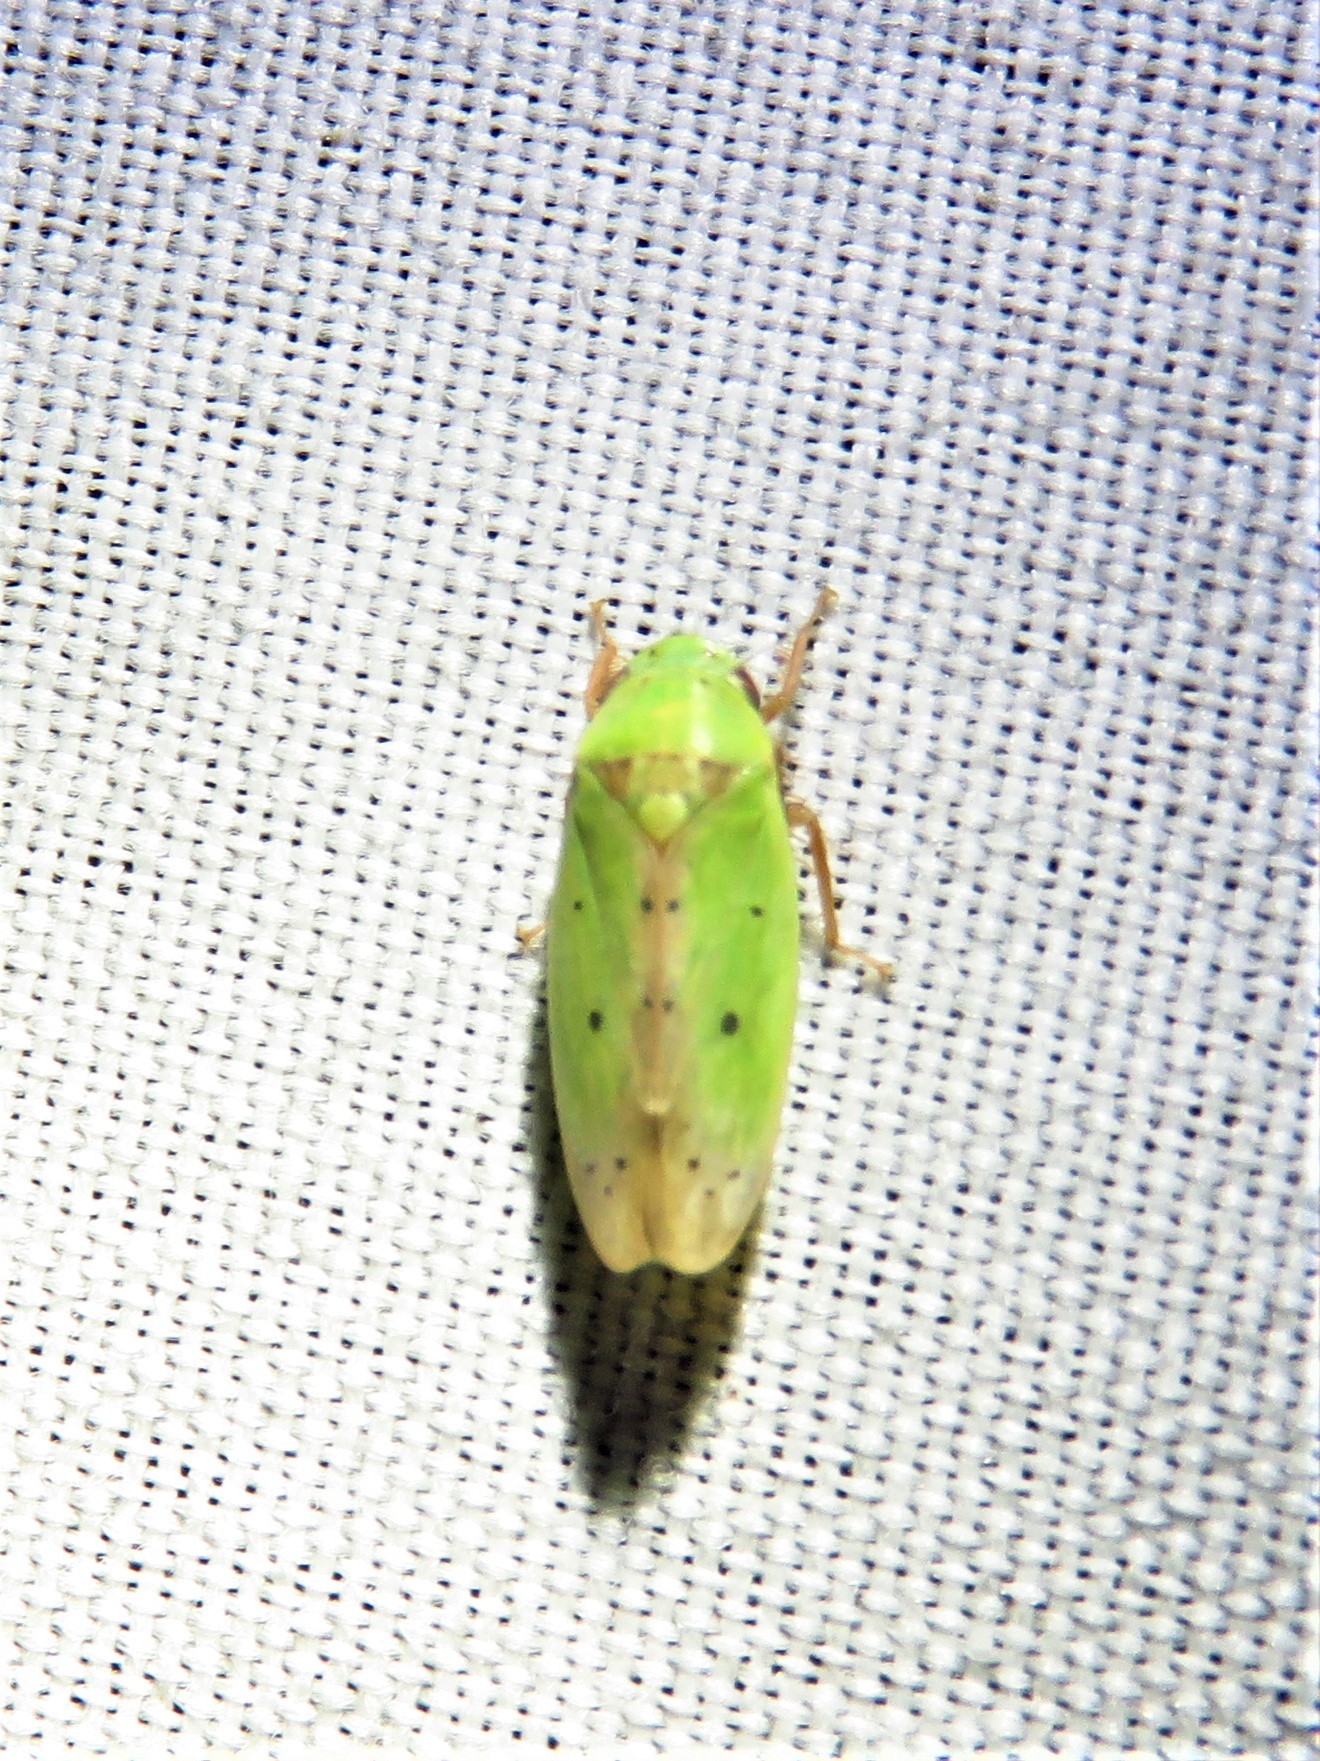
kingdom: Animalia
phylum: Arthropoda
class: Insecta
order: Hemiptera
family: Cicadellidae
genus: Ponana
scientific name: Ponana
